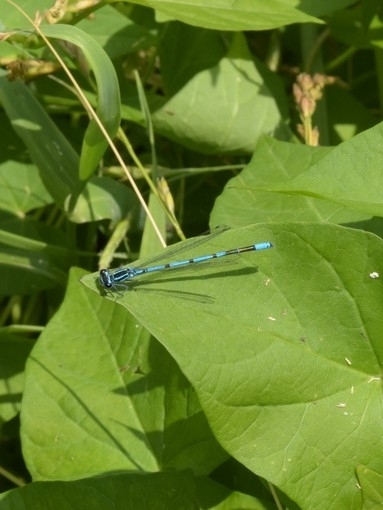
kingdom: Animalia
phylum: Arthropoda
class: Insecta
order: Odonata
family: Coenagrionidae
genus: Coenagrion
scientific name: Coenagrion puella
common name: Azure damselfly
